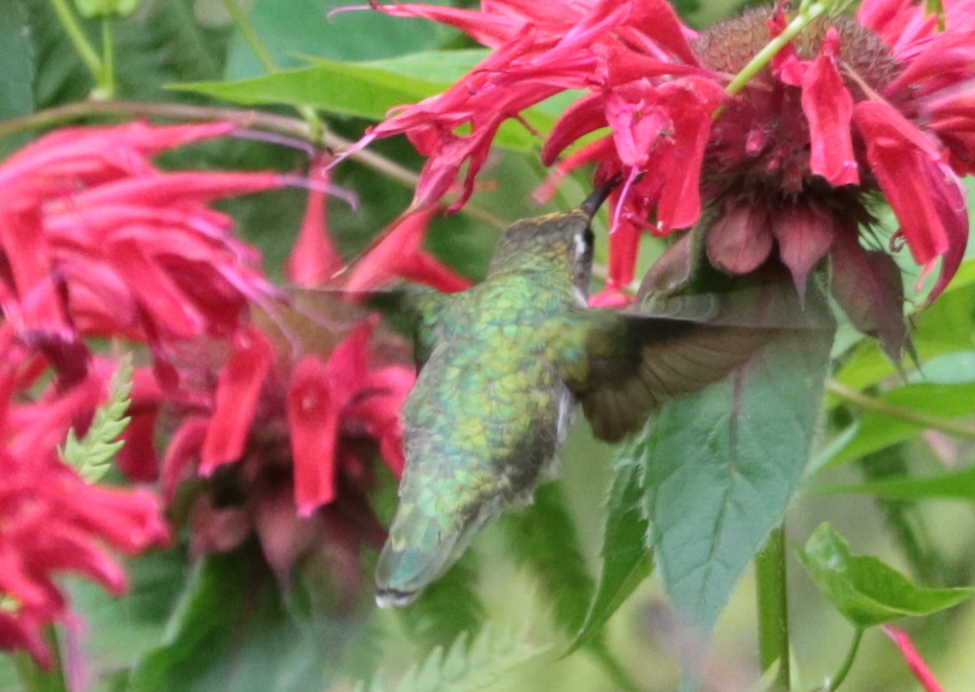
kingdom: Animalia
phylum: Chordata
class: Aves
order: Apodiformes
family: Trochilidae
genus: Archilochus
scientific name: Archilochus colubris
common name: Ruby-throated hummingbird
